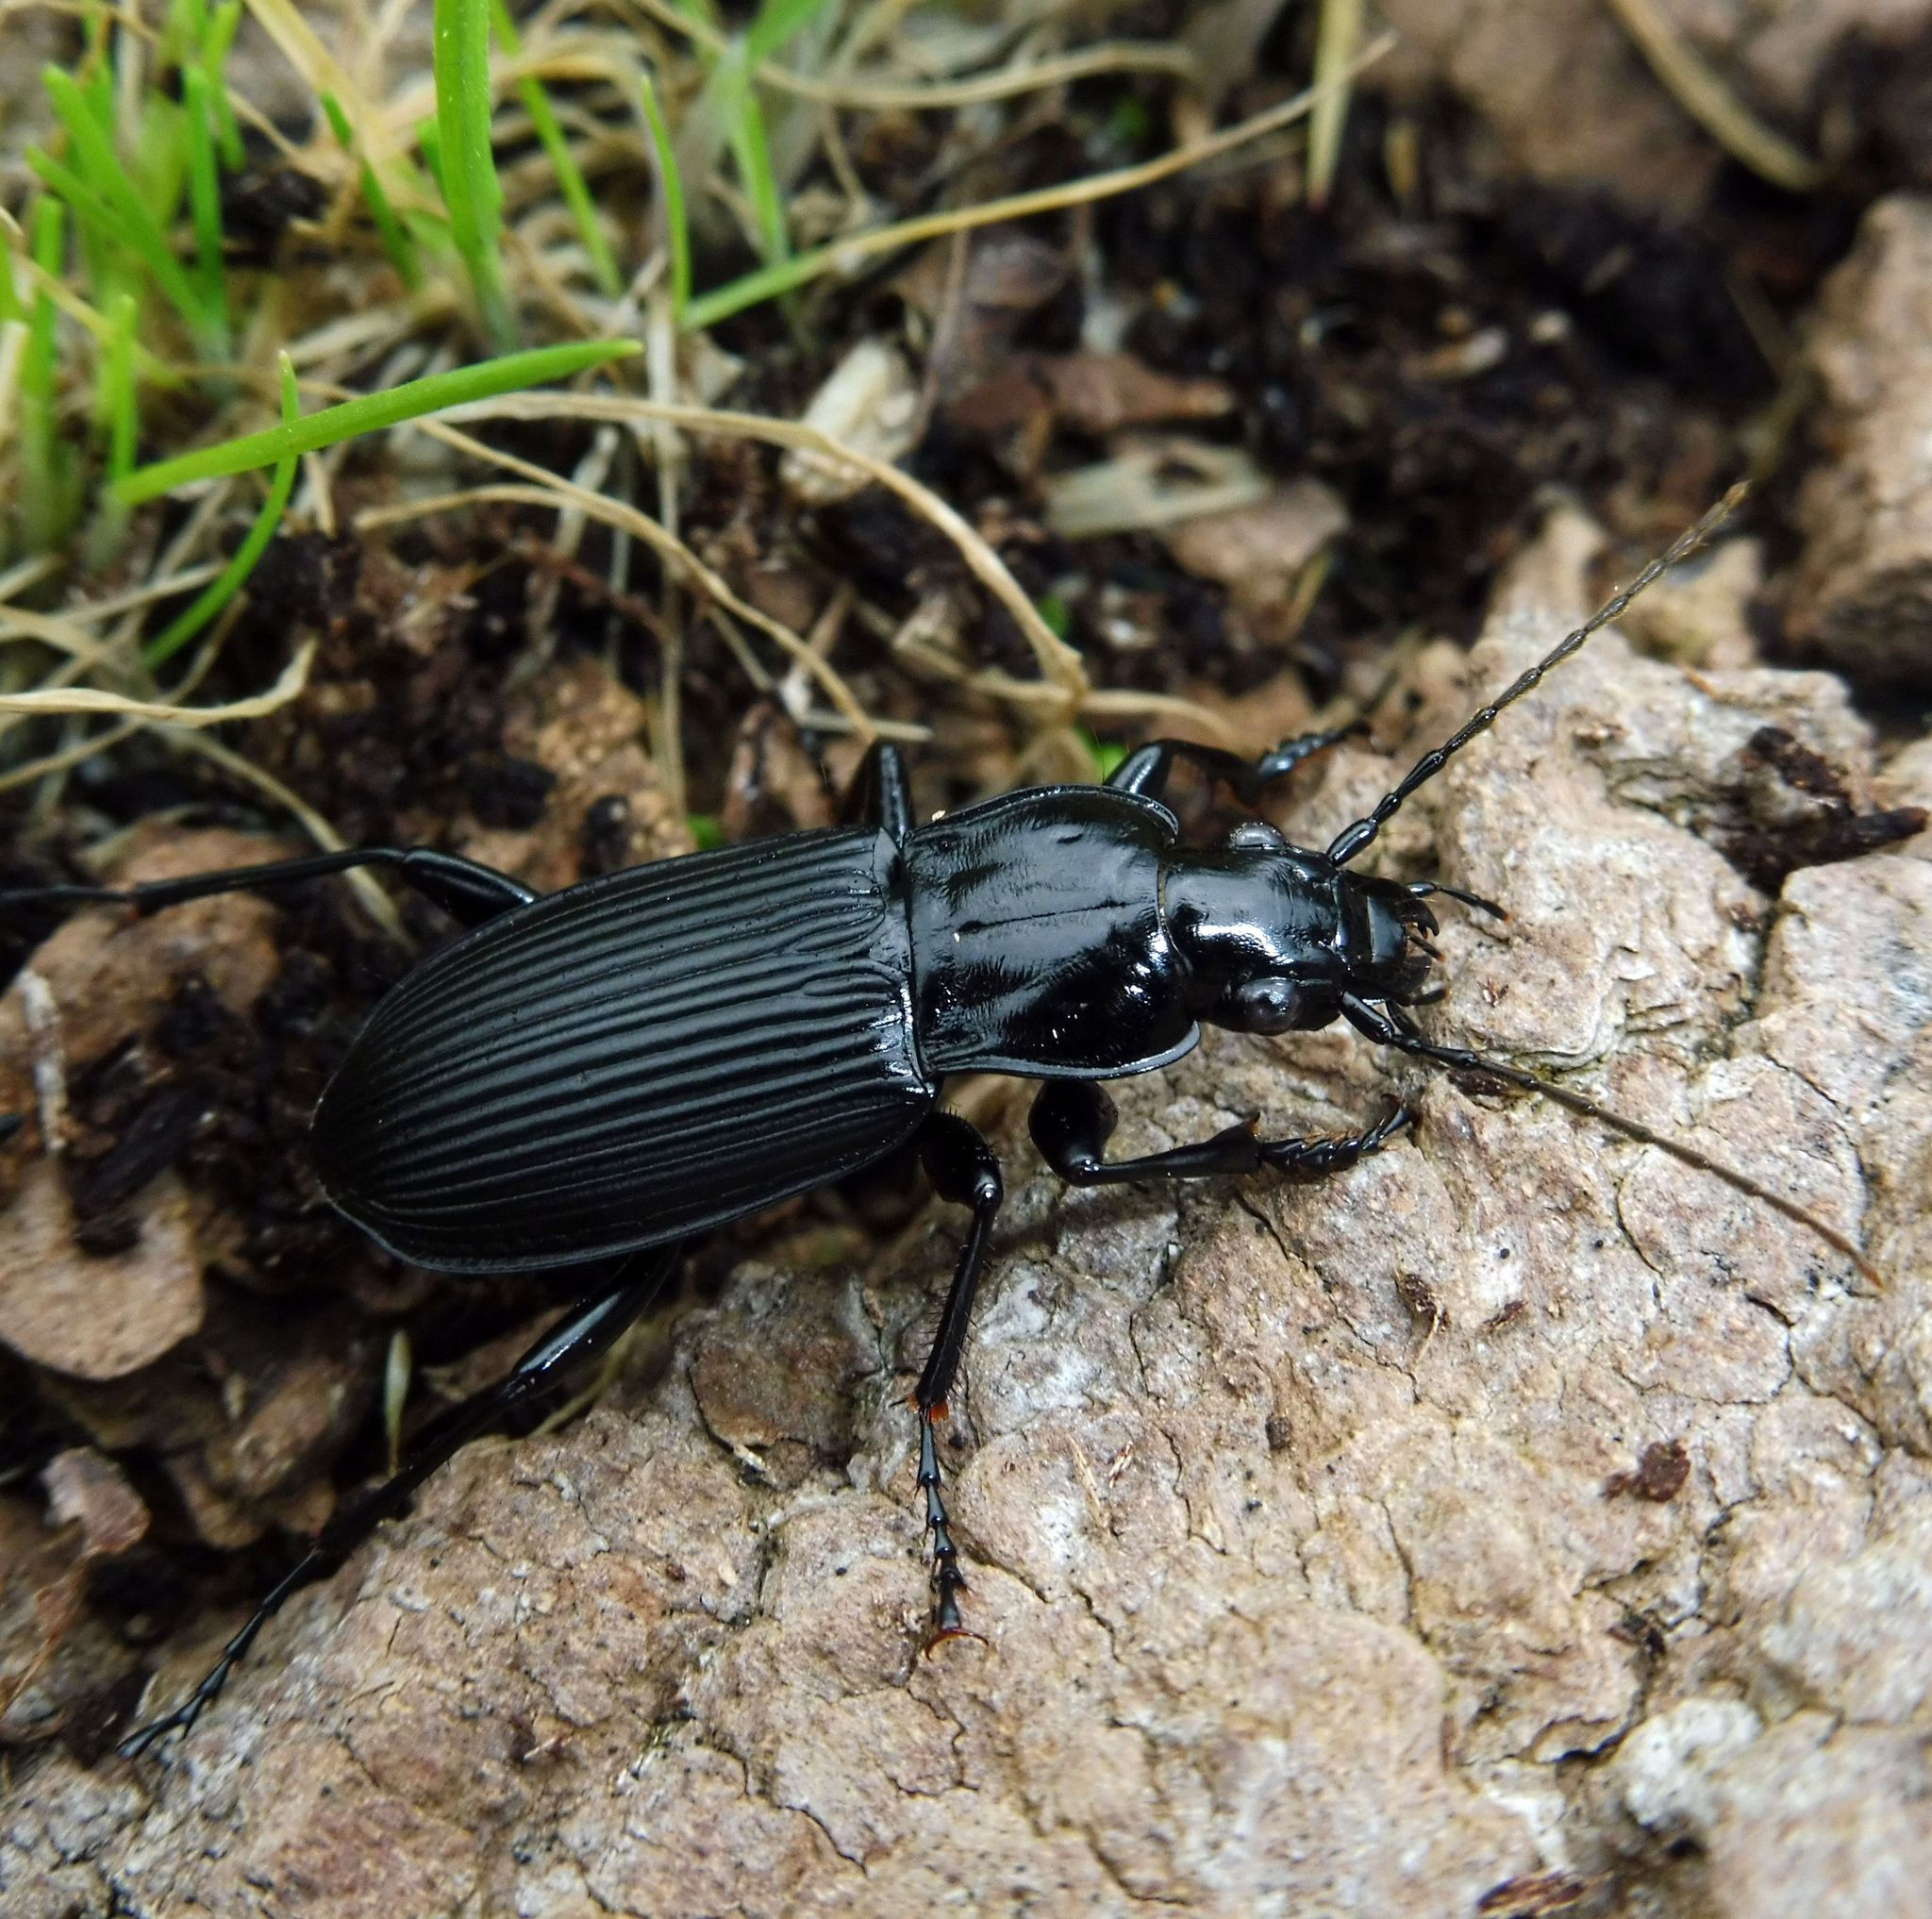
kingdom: Animalia
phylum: Arthropoda
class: Insecta
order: Coleoptera
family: Carabidae
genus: Pterostichus
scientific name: Pterostichus niger
